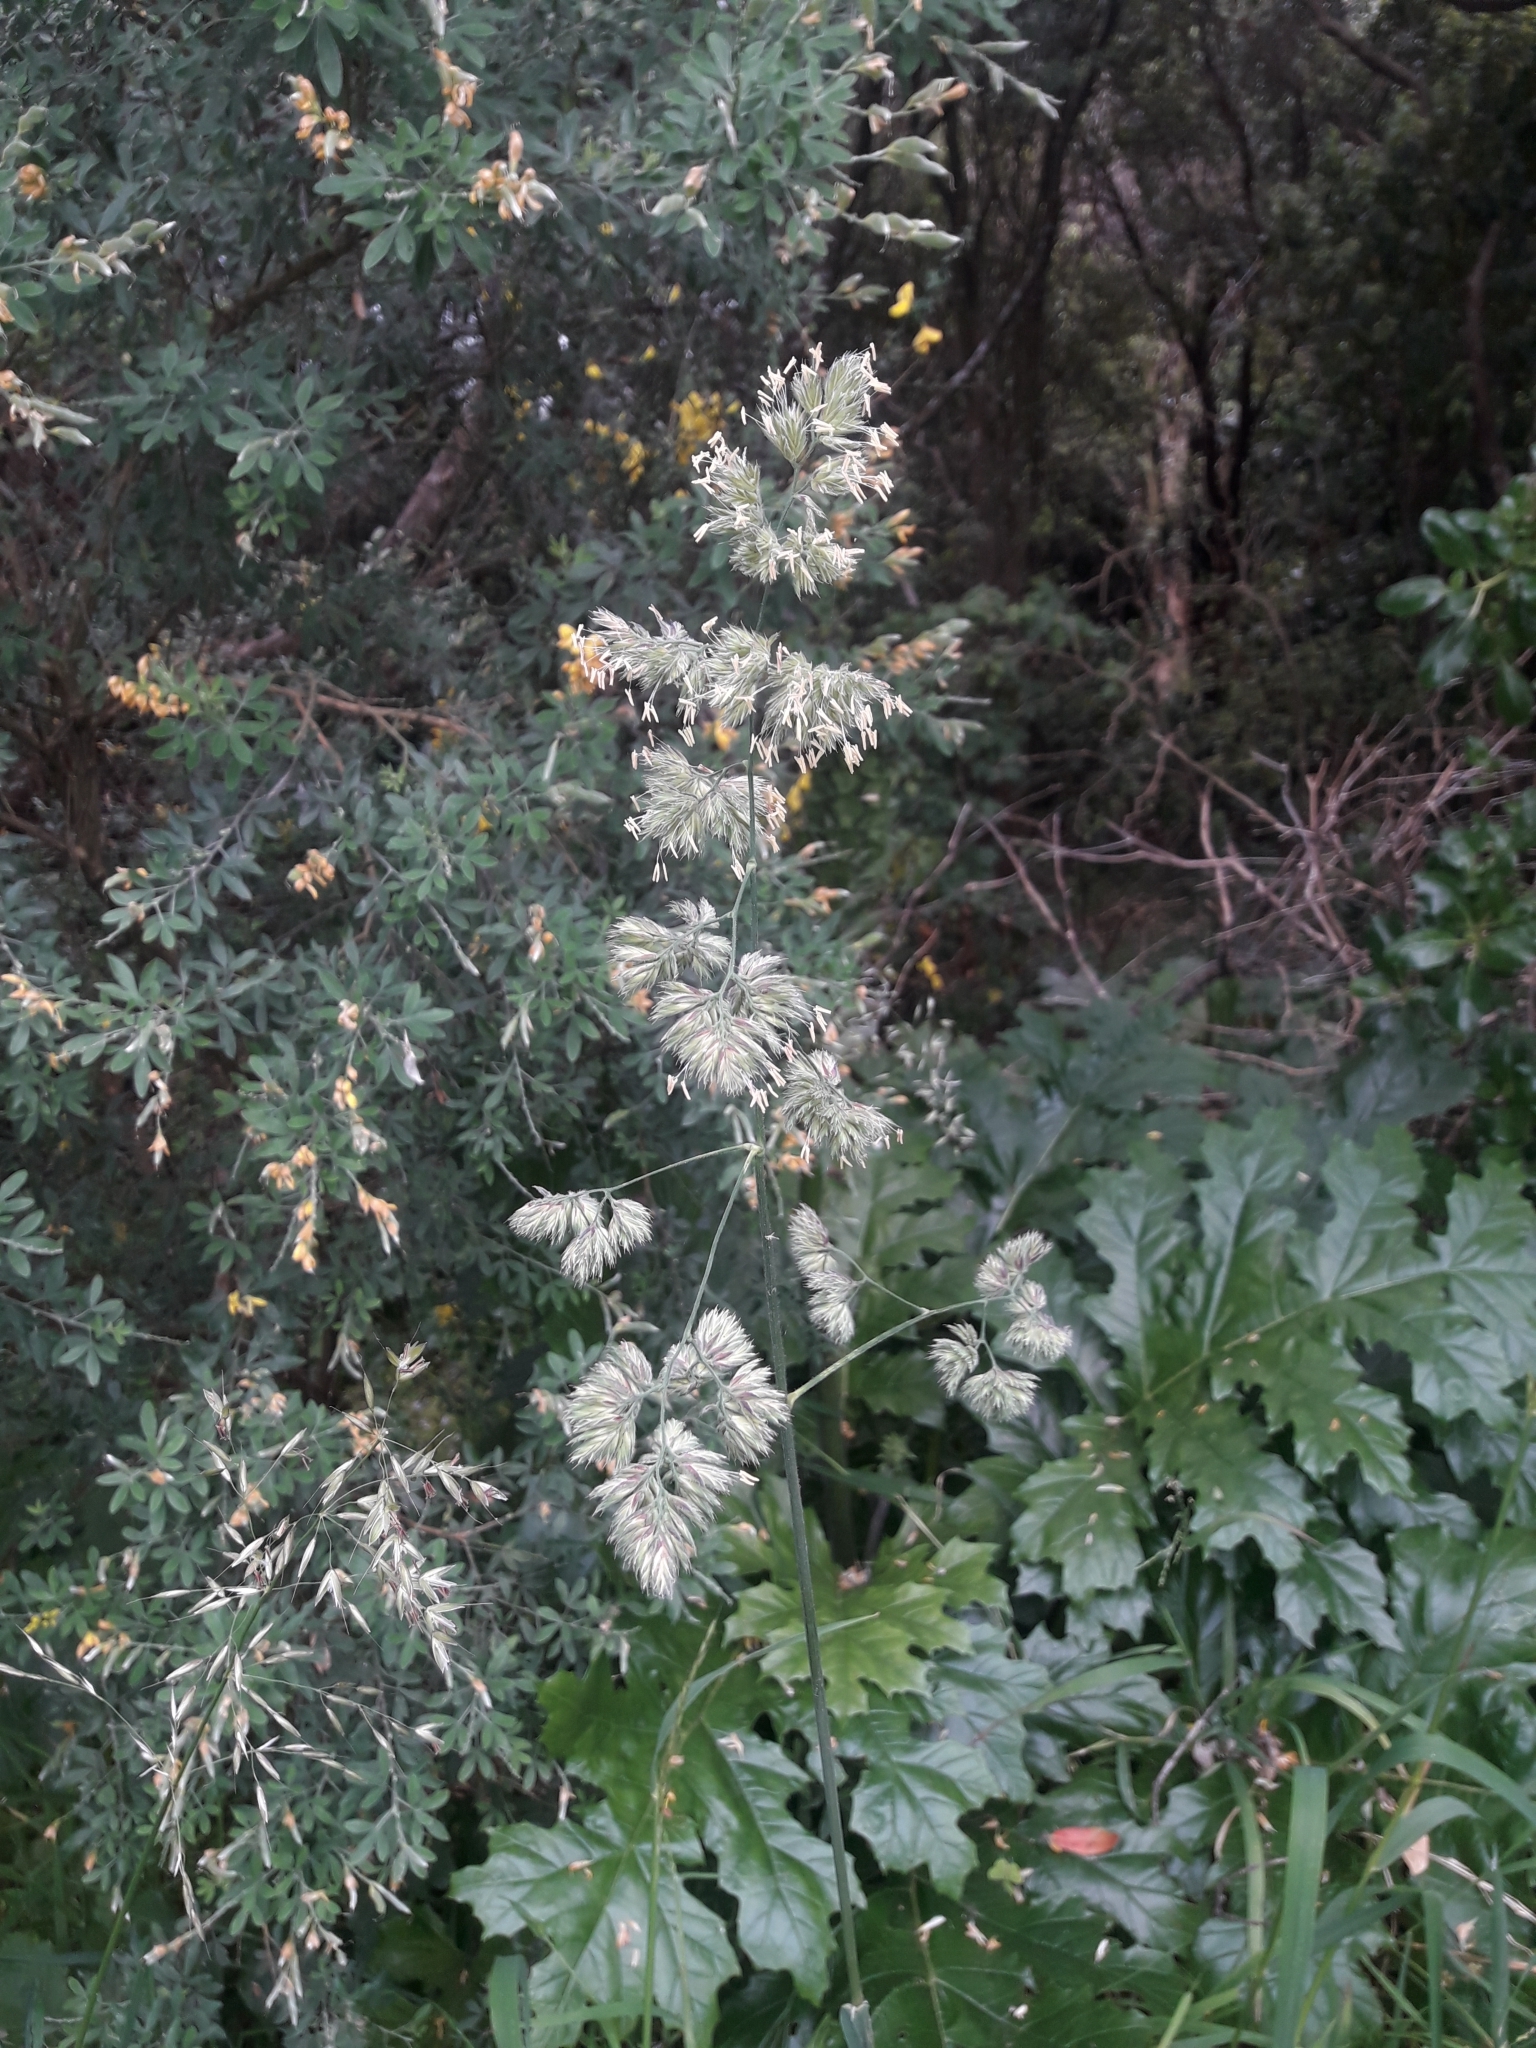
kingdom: Plantae
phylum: Tracheophyta
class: Liliopsida
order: Poales
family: Poaceae
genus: Dactylis
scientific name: Dactylis glomerata
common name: Orchardgrass
